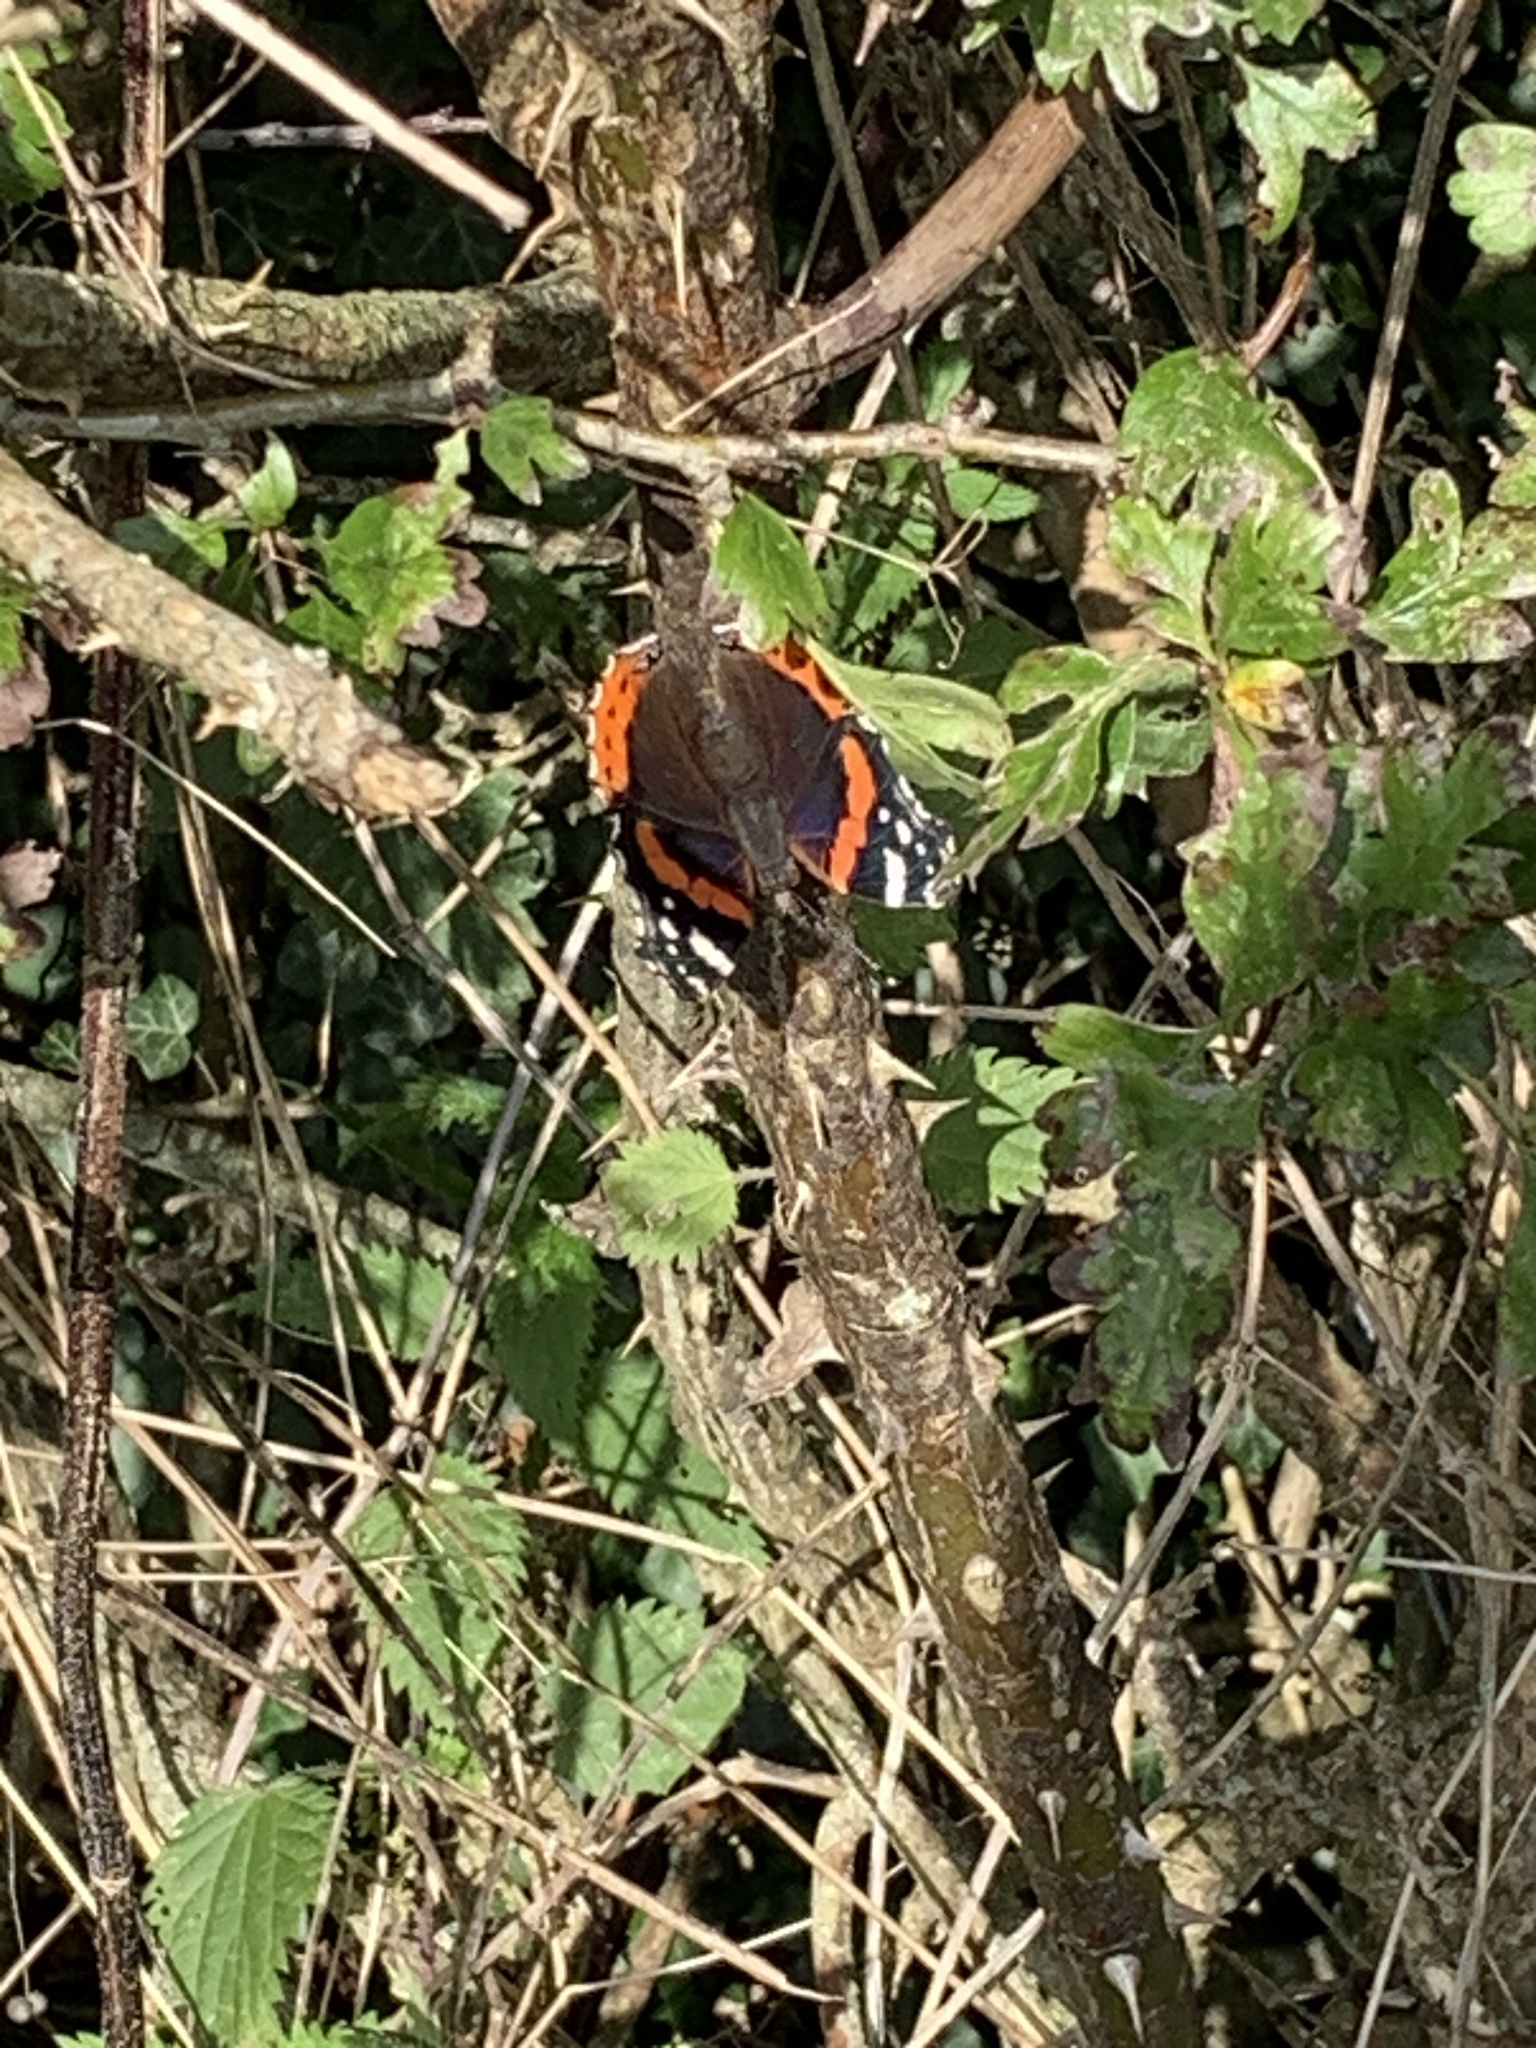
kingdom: Animalia
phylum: Arthropoda
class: Insecta
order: Lepidoptera
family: Nymphalidae
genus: Vanessa
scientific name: Vanessa atalanta
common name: Red admiral
